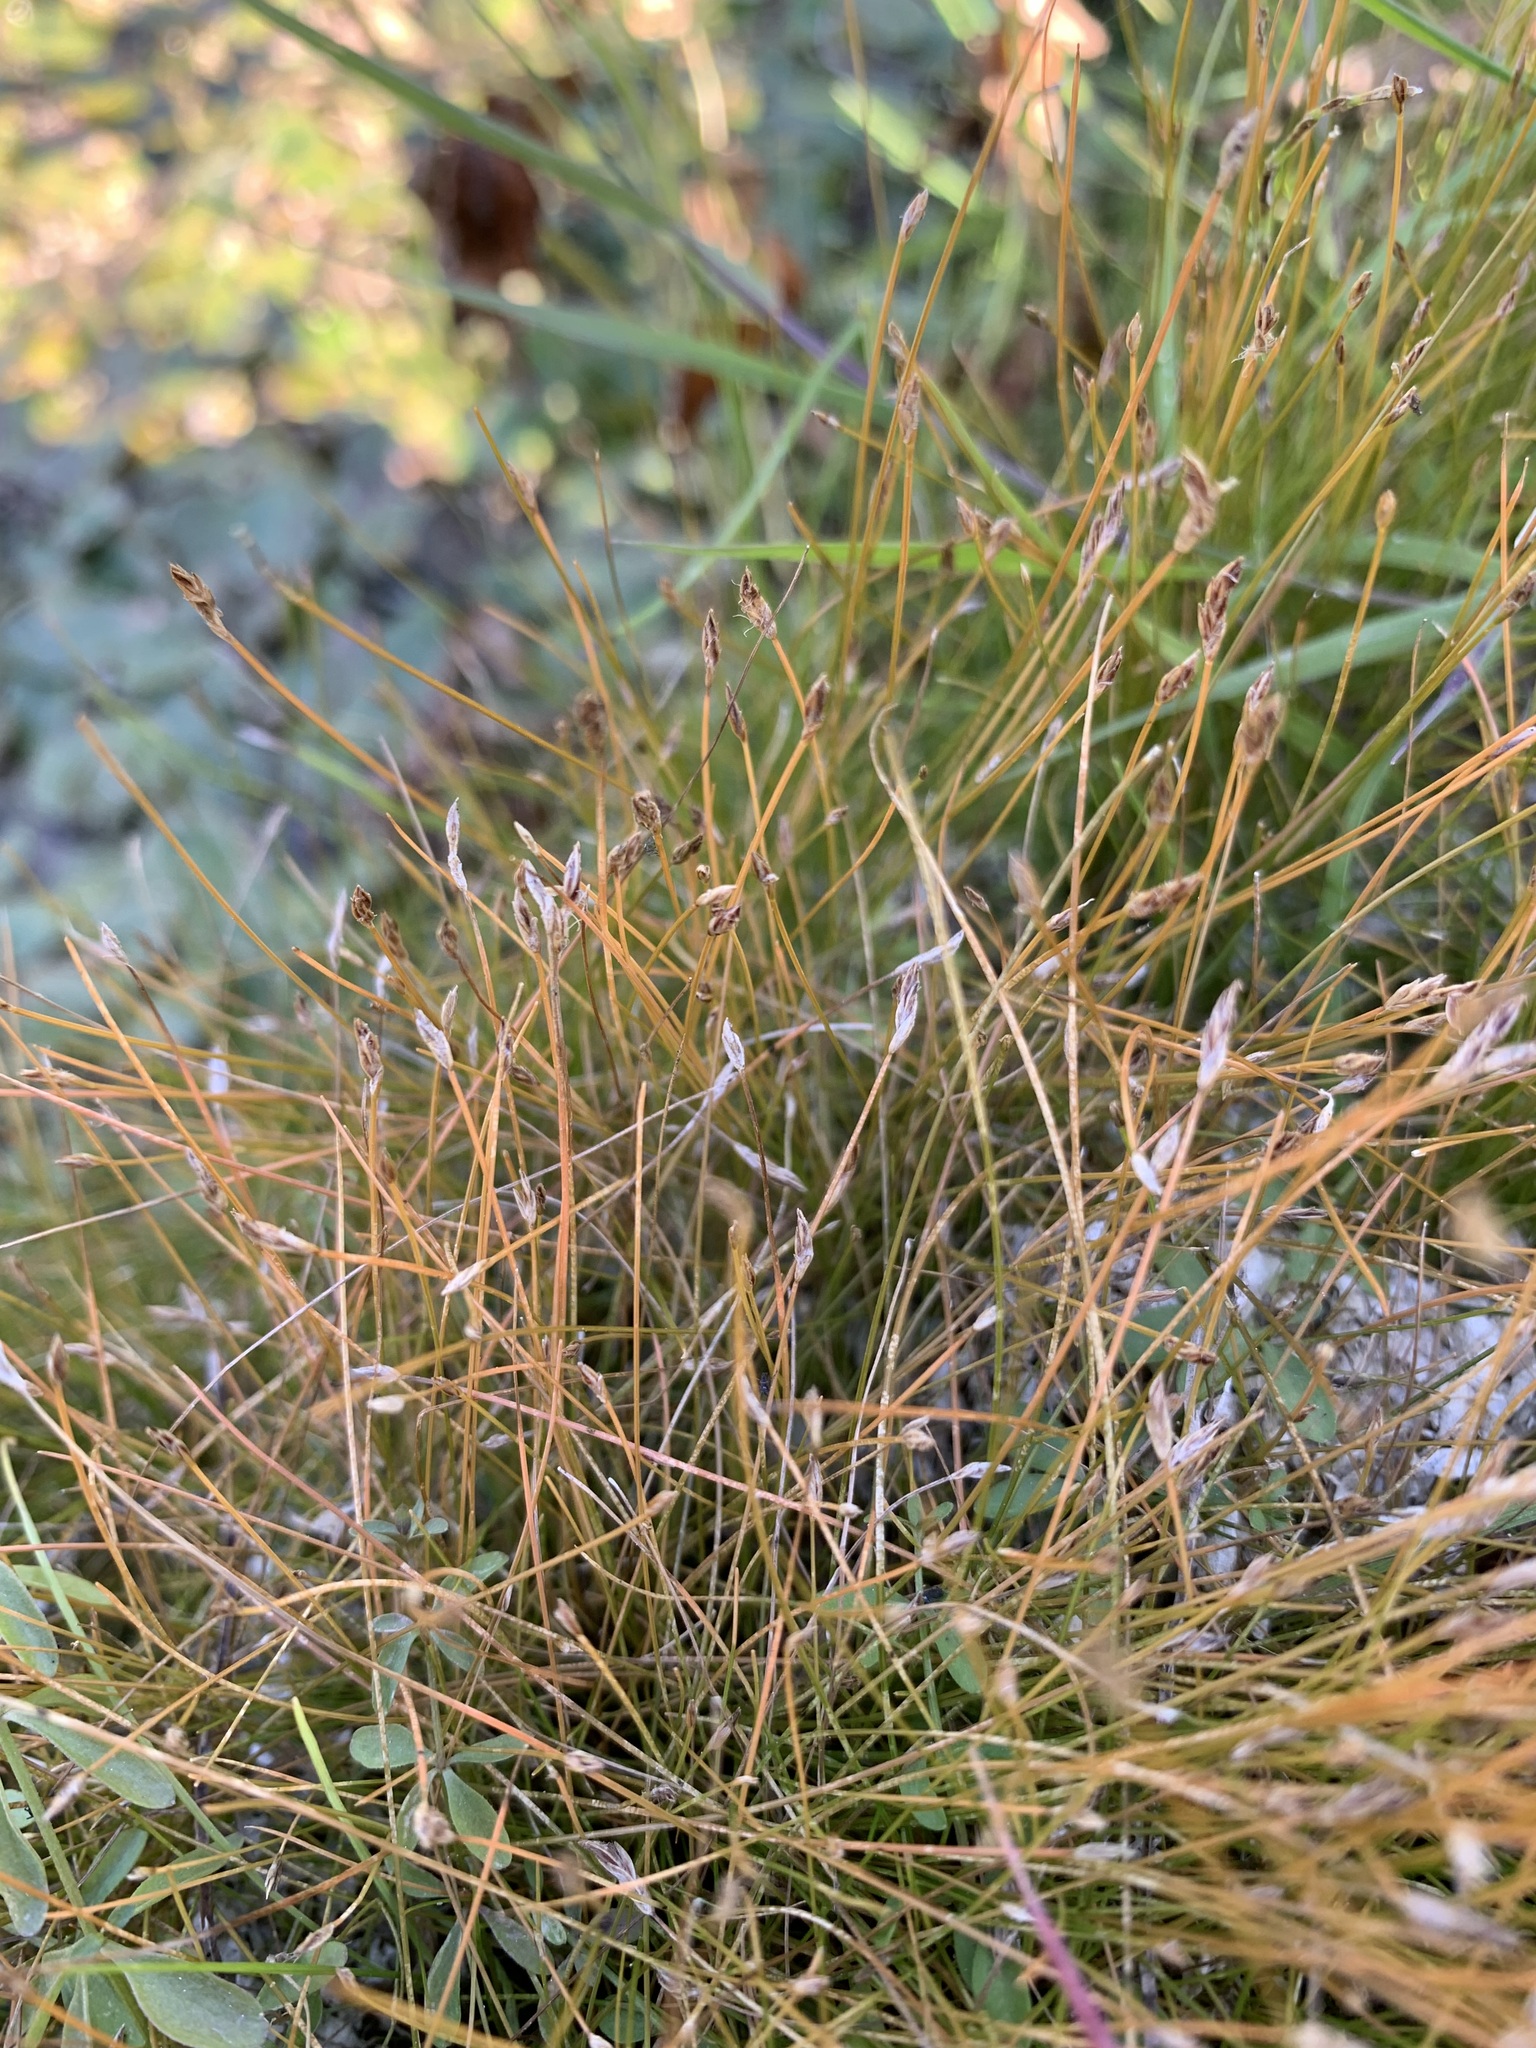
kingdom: Plantae
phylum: Tracheophyta
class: Liliopsida
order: Poales
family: Cyperaceae
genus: Eleocharis
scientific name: Eleocharis acicularis
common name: Needle spike-rush
